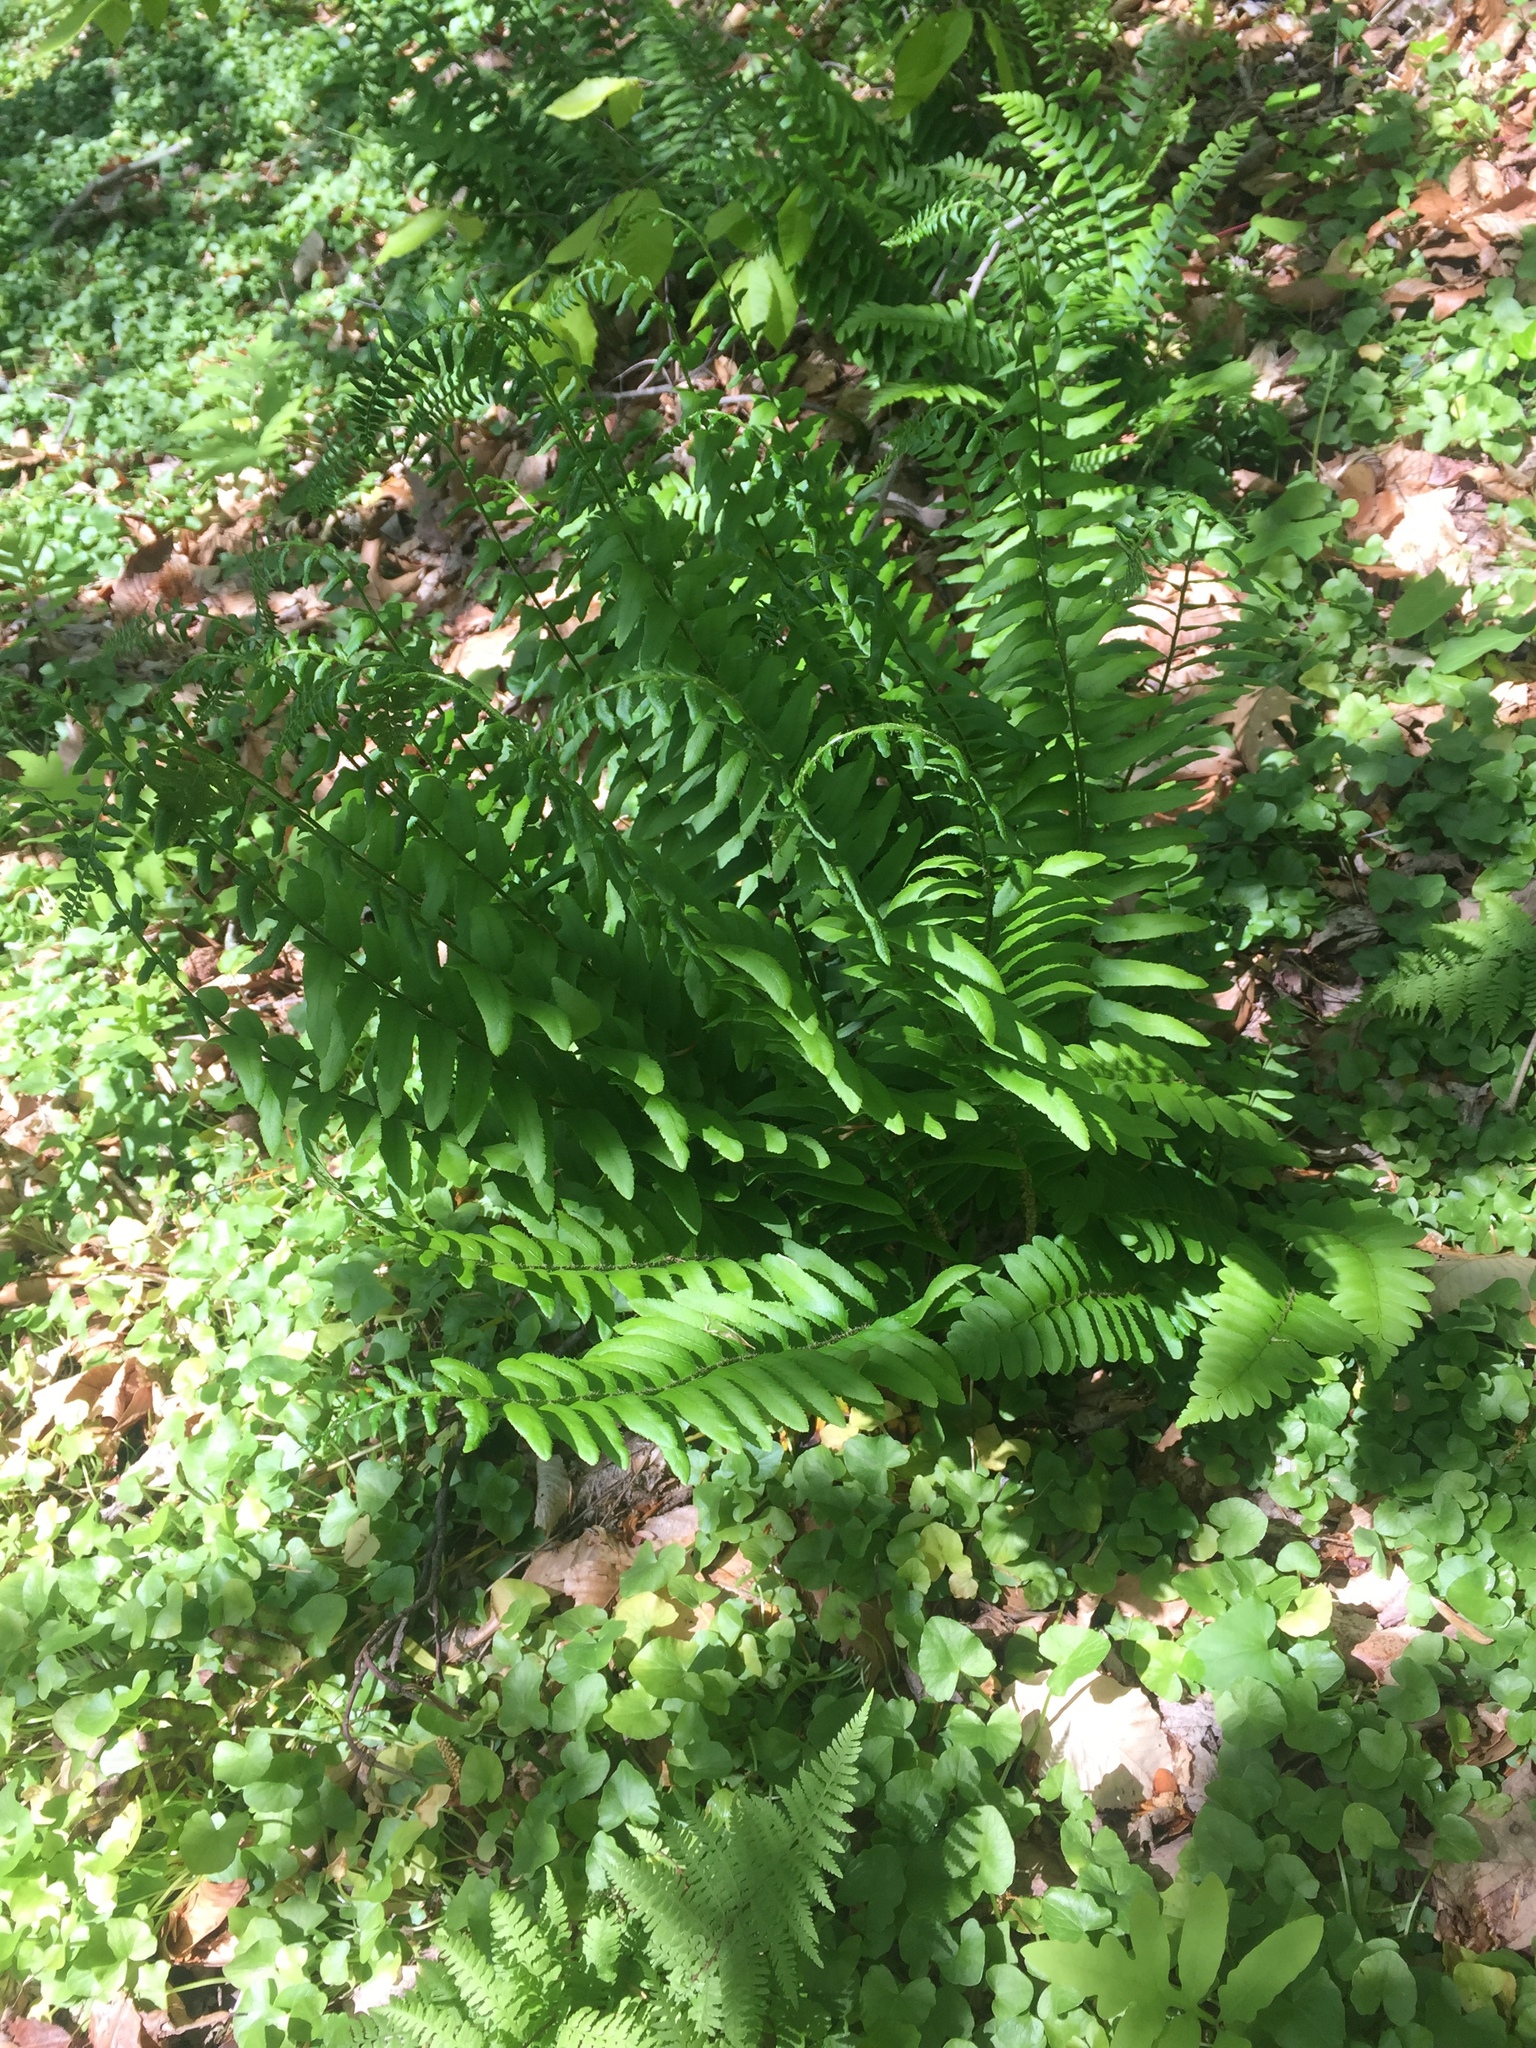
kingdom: Plantae
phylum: Tracheophyta
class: Polypodiopsida
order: Polypodiales
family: Dryopteridaceae
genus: Polystichum
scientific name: Polystichum acrostichoides
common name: Christmas fern
